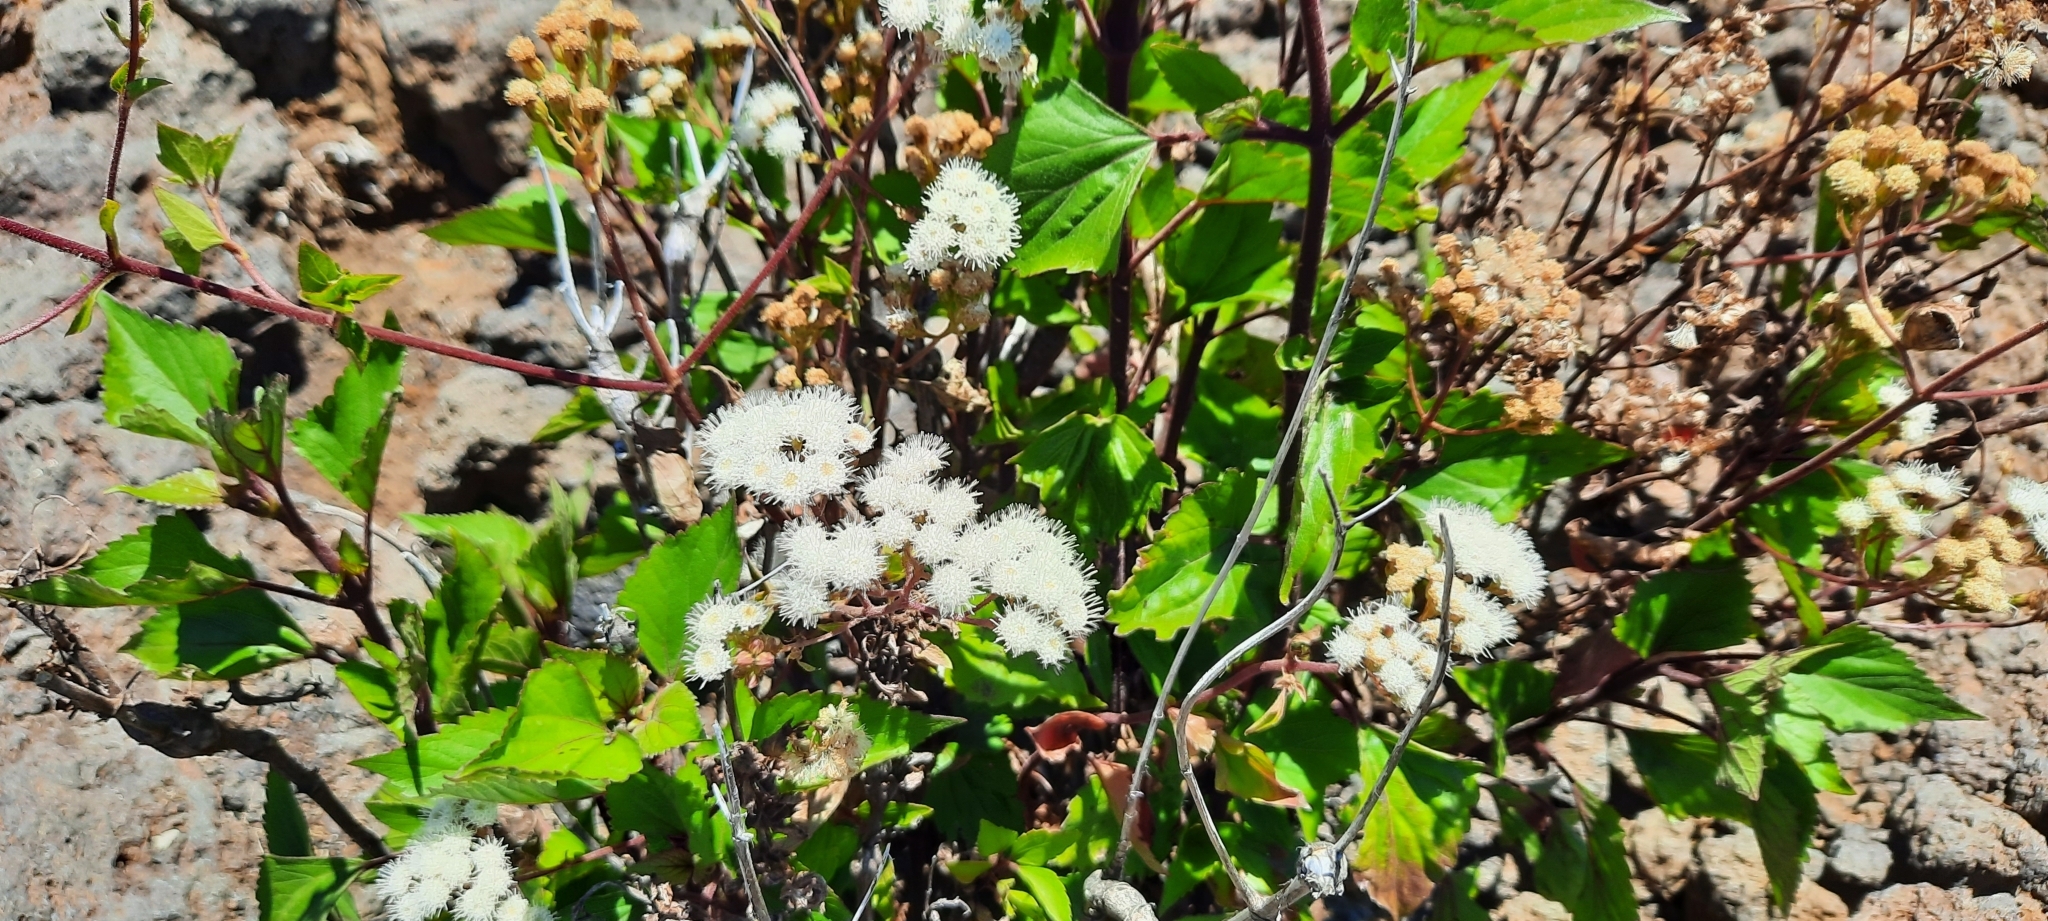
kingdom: Plantae
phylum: Tracheophyta
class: Magnoliopsida
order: Asterales
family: Asteraceae
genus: Ageratina
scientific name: Ageratina adenophora
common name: Sticky snakeroot
